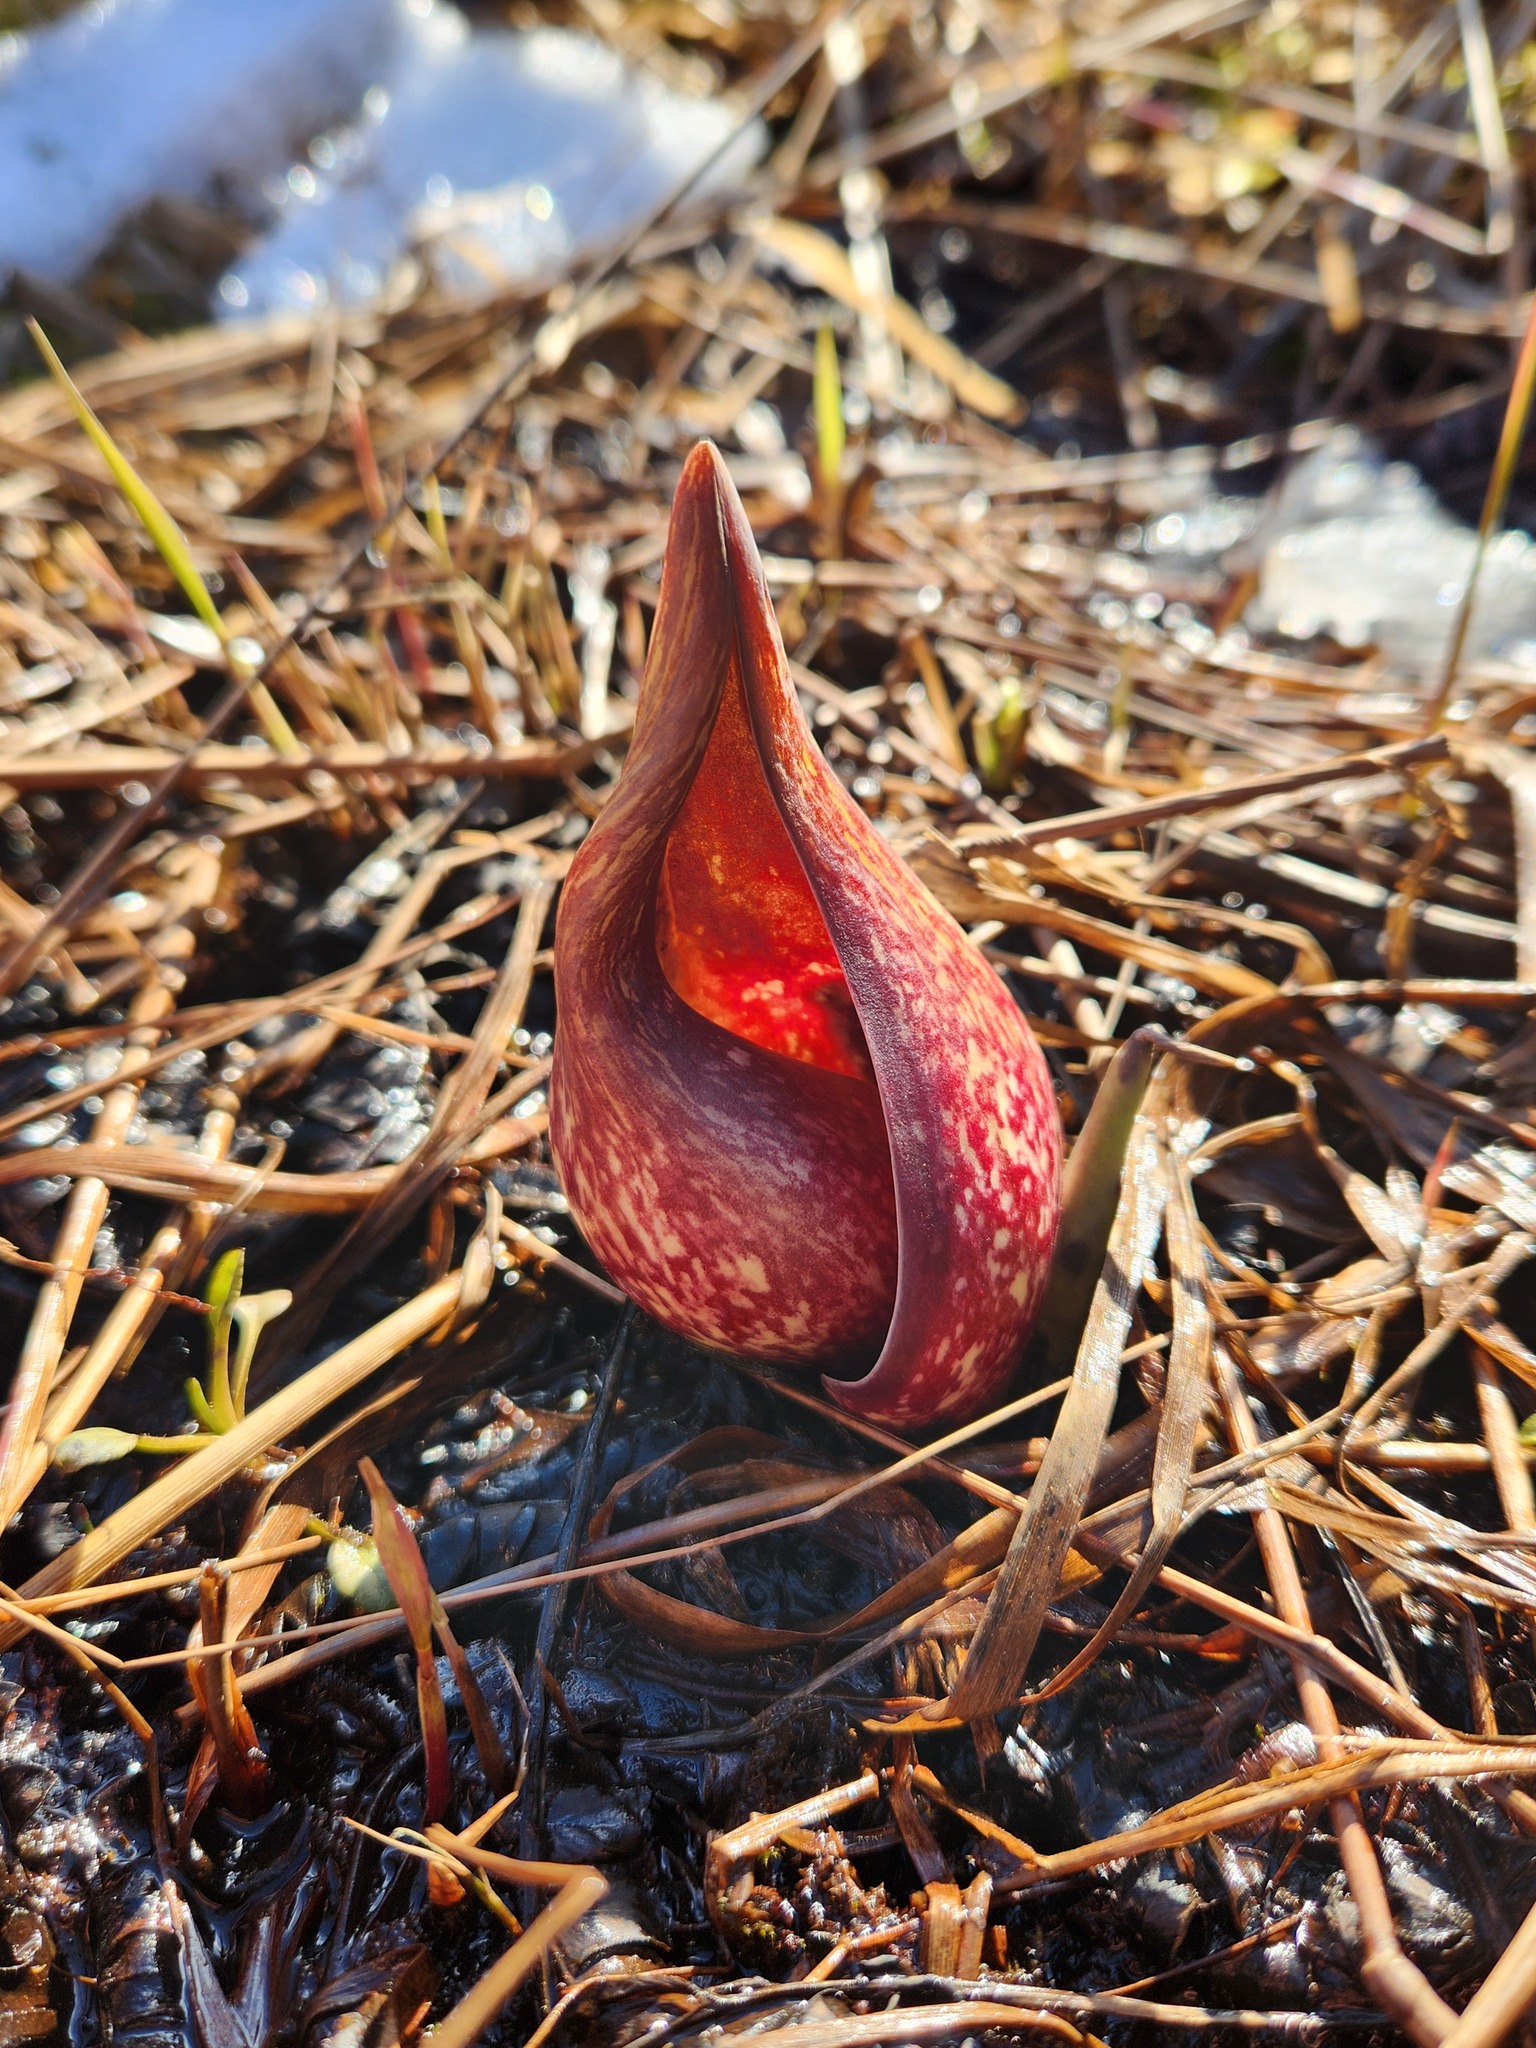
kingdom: Plantae
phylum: Tracheophyta
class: Liliopsida
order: Alismatales
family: Araceae
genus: Symplocarpus
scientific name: Symplocarpus foetidus
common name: Eastern skunk cabbage
